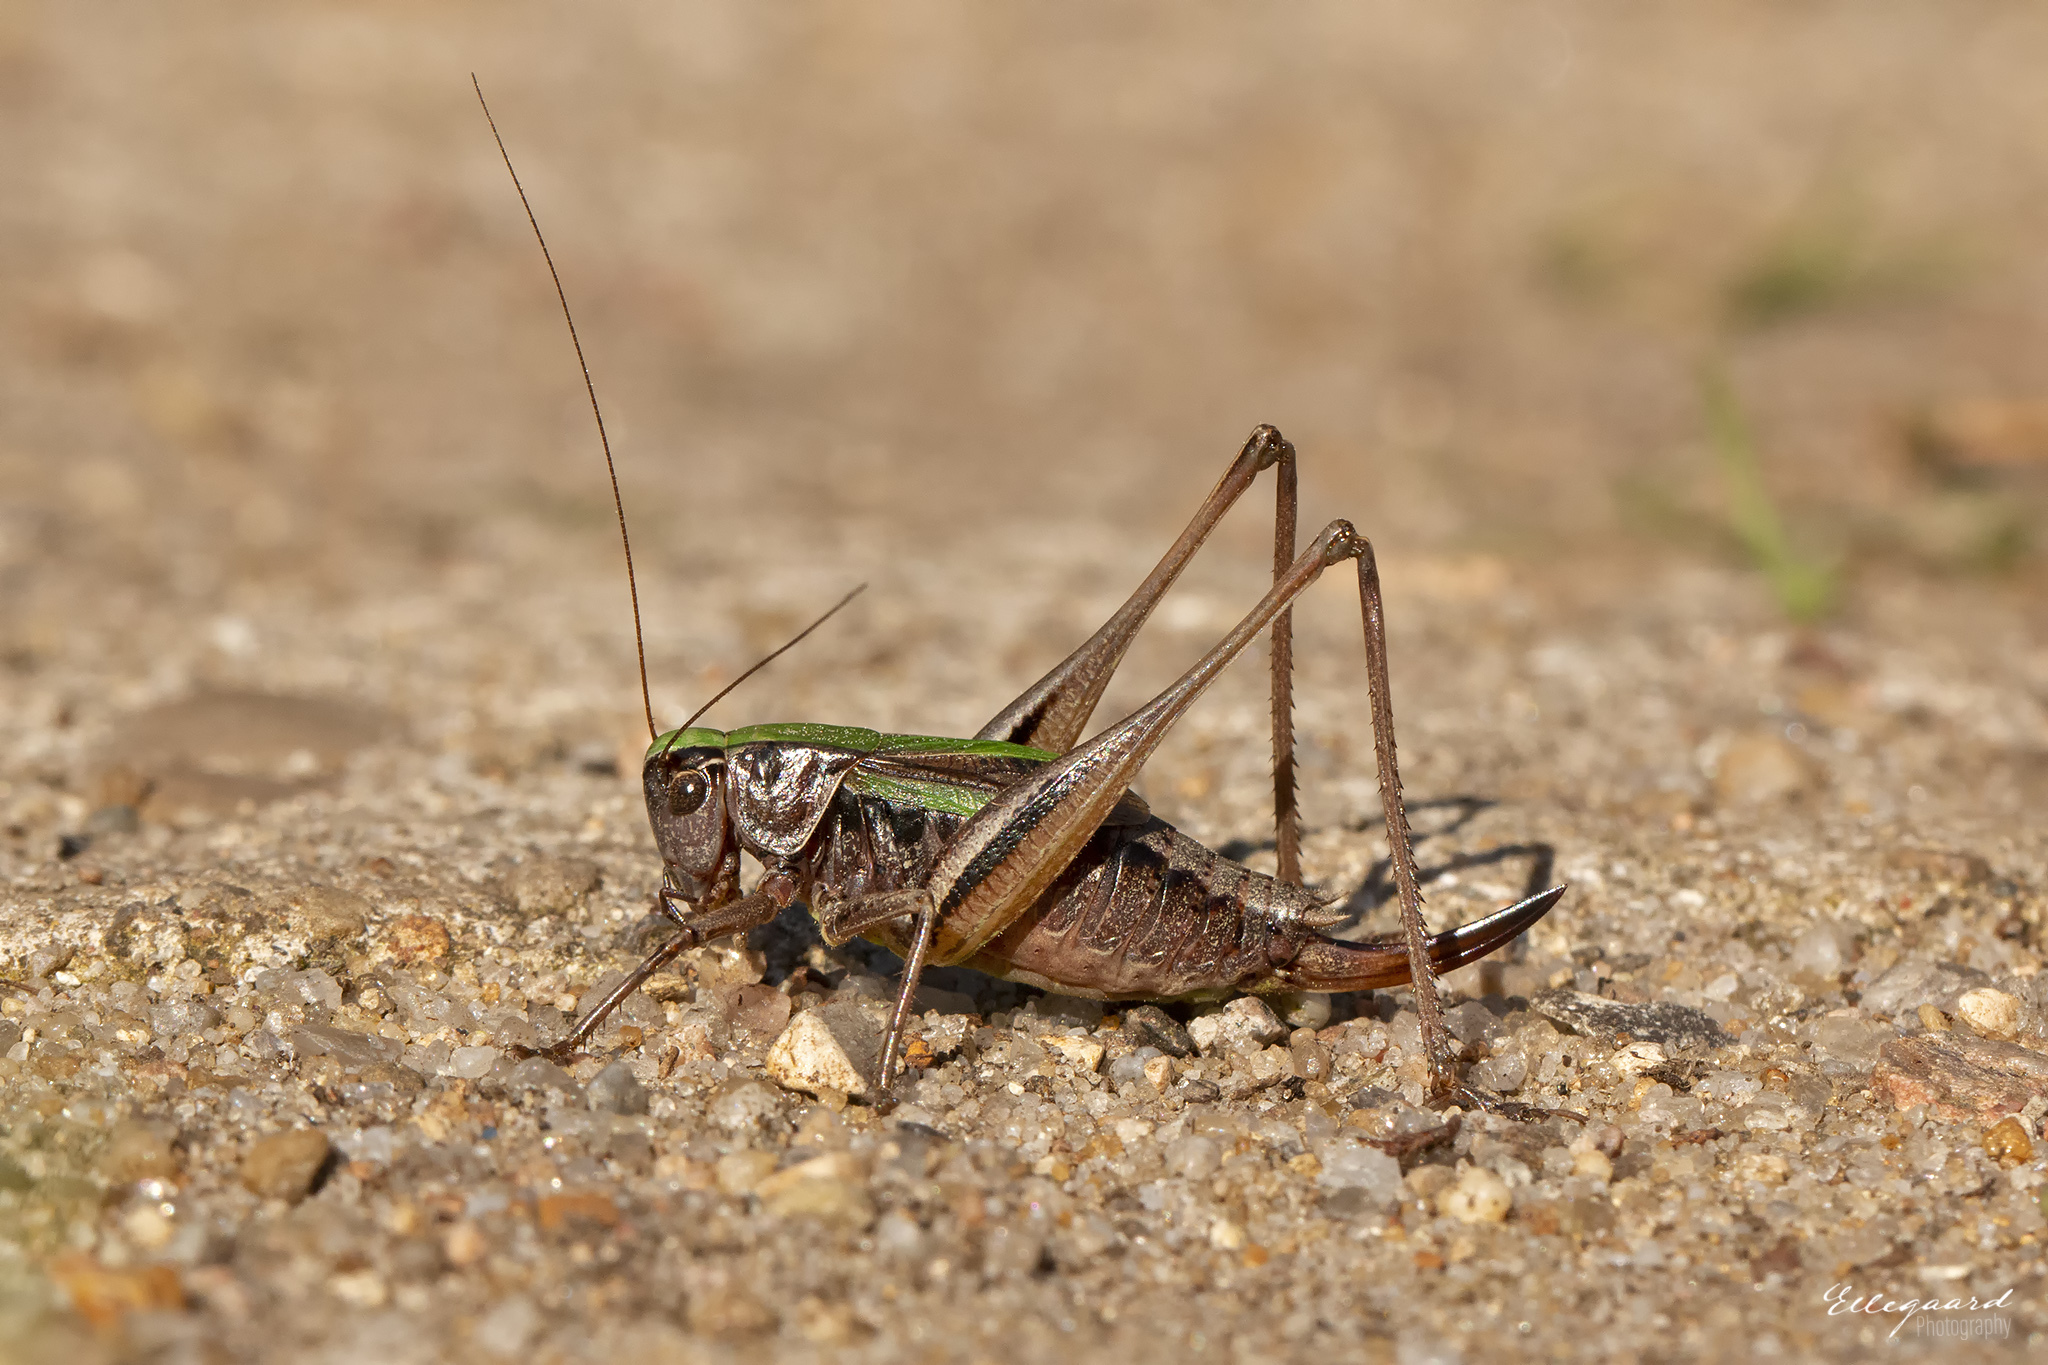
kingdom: Animalia
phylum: Arthropoda
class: Insecta
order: Orthoptera
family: Tettigoniidae
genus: Metrioptera
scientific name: Metrioptera brachyptera
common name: Bog bush-cricket
